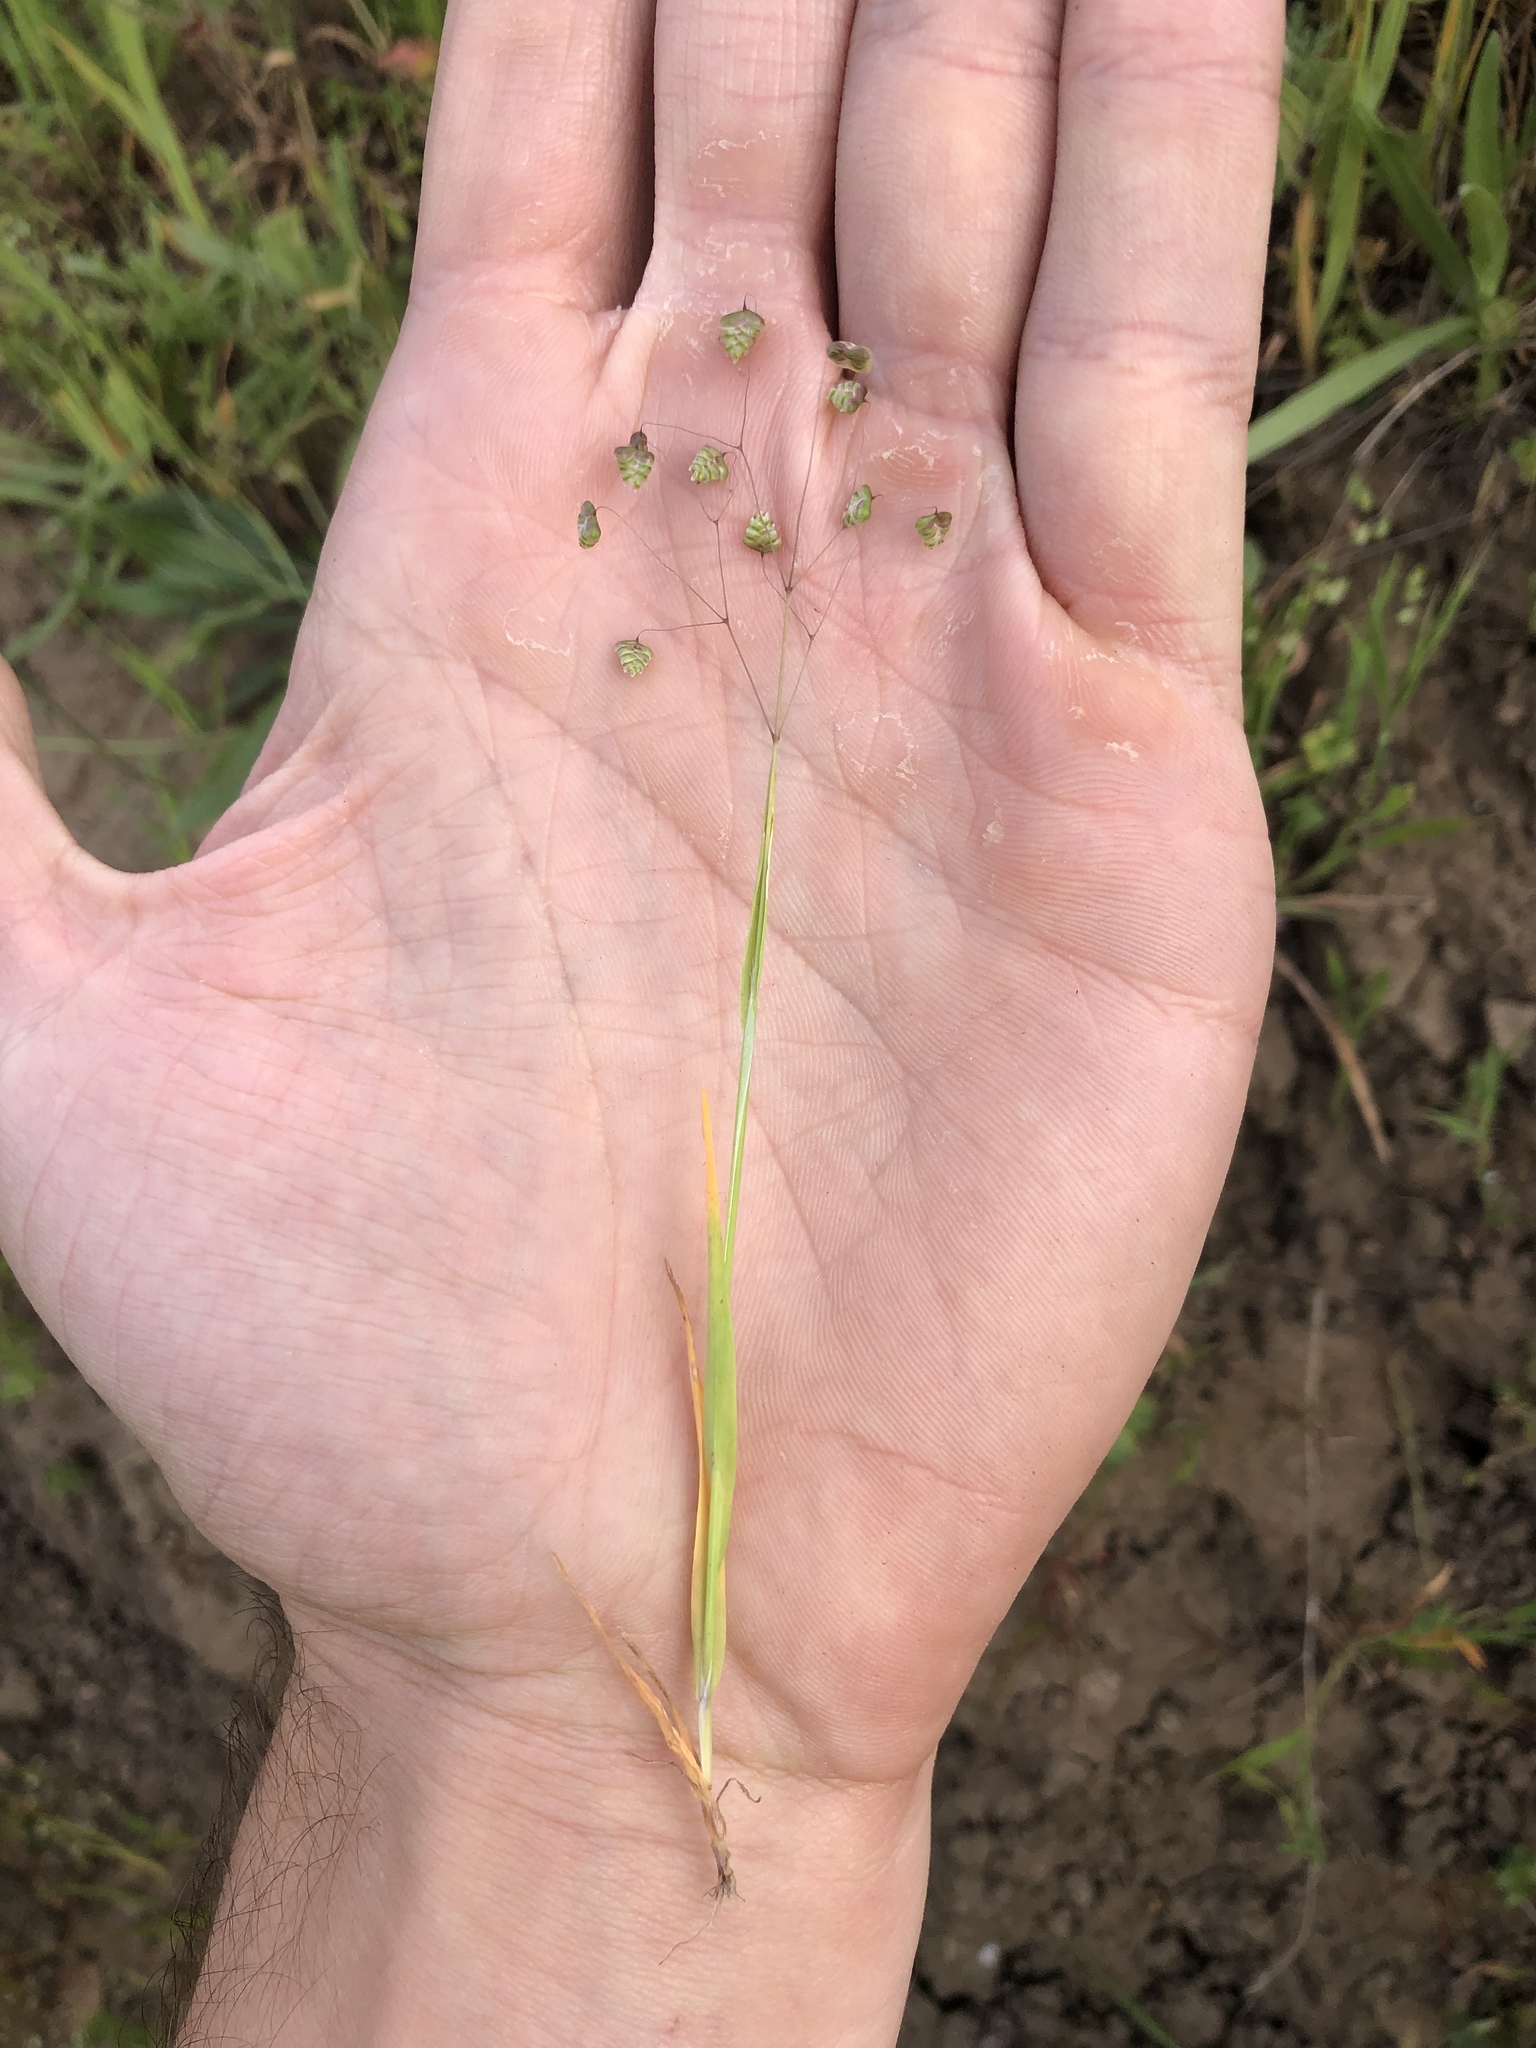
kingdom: Plantae
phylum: Tracheophyta
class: Liliopsida
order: Poales
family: Poaceae
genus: Briza
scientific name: Briza minor
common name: Lesser quaking-grass
